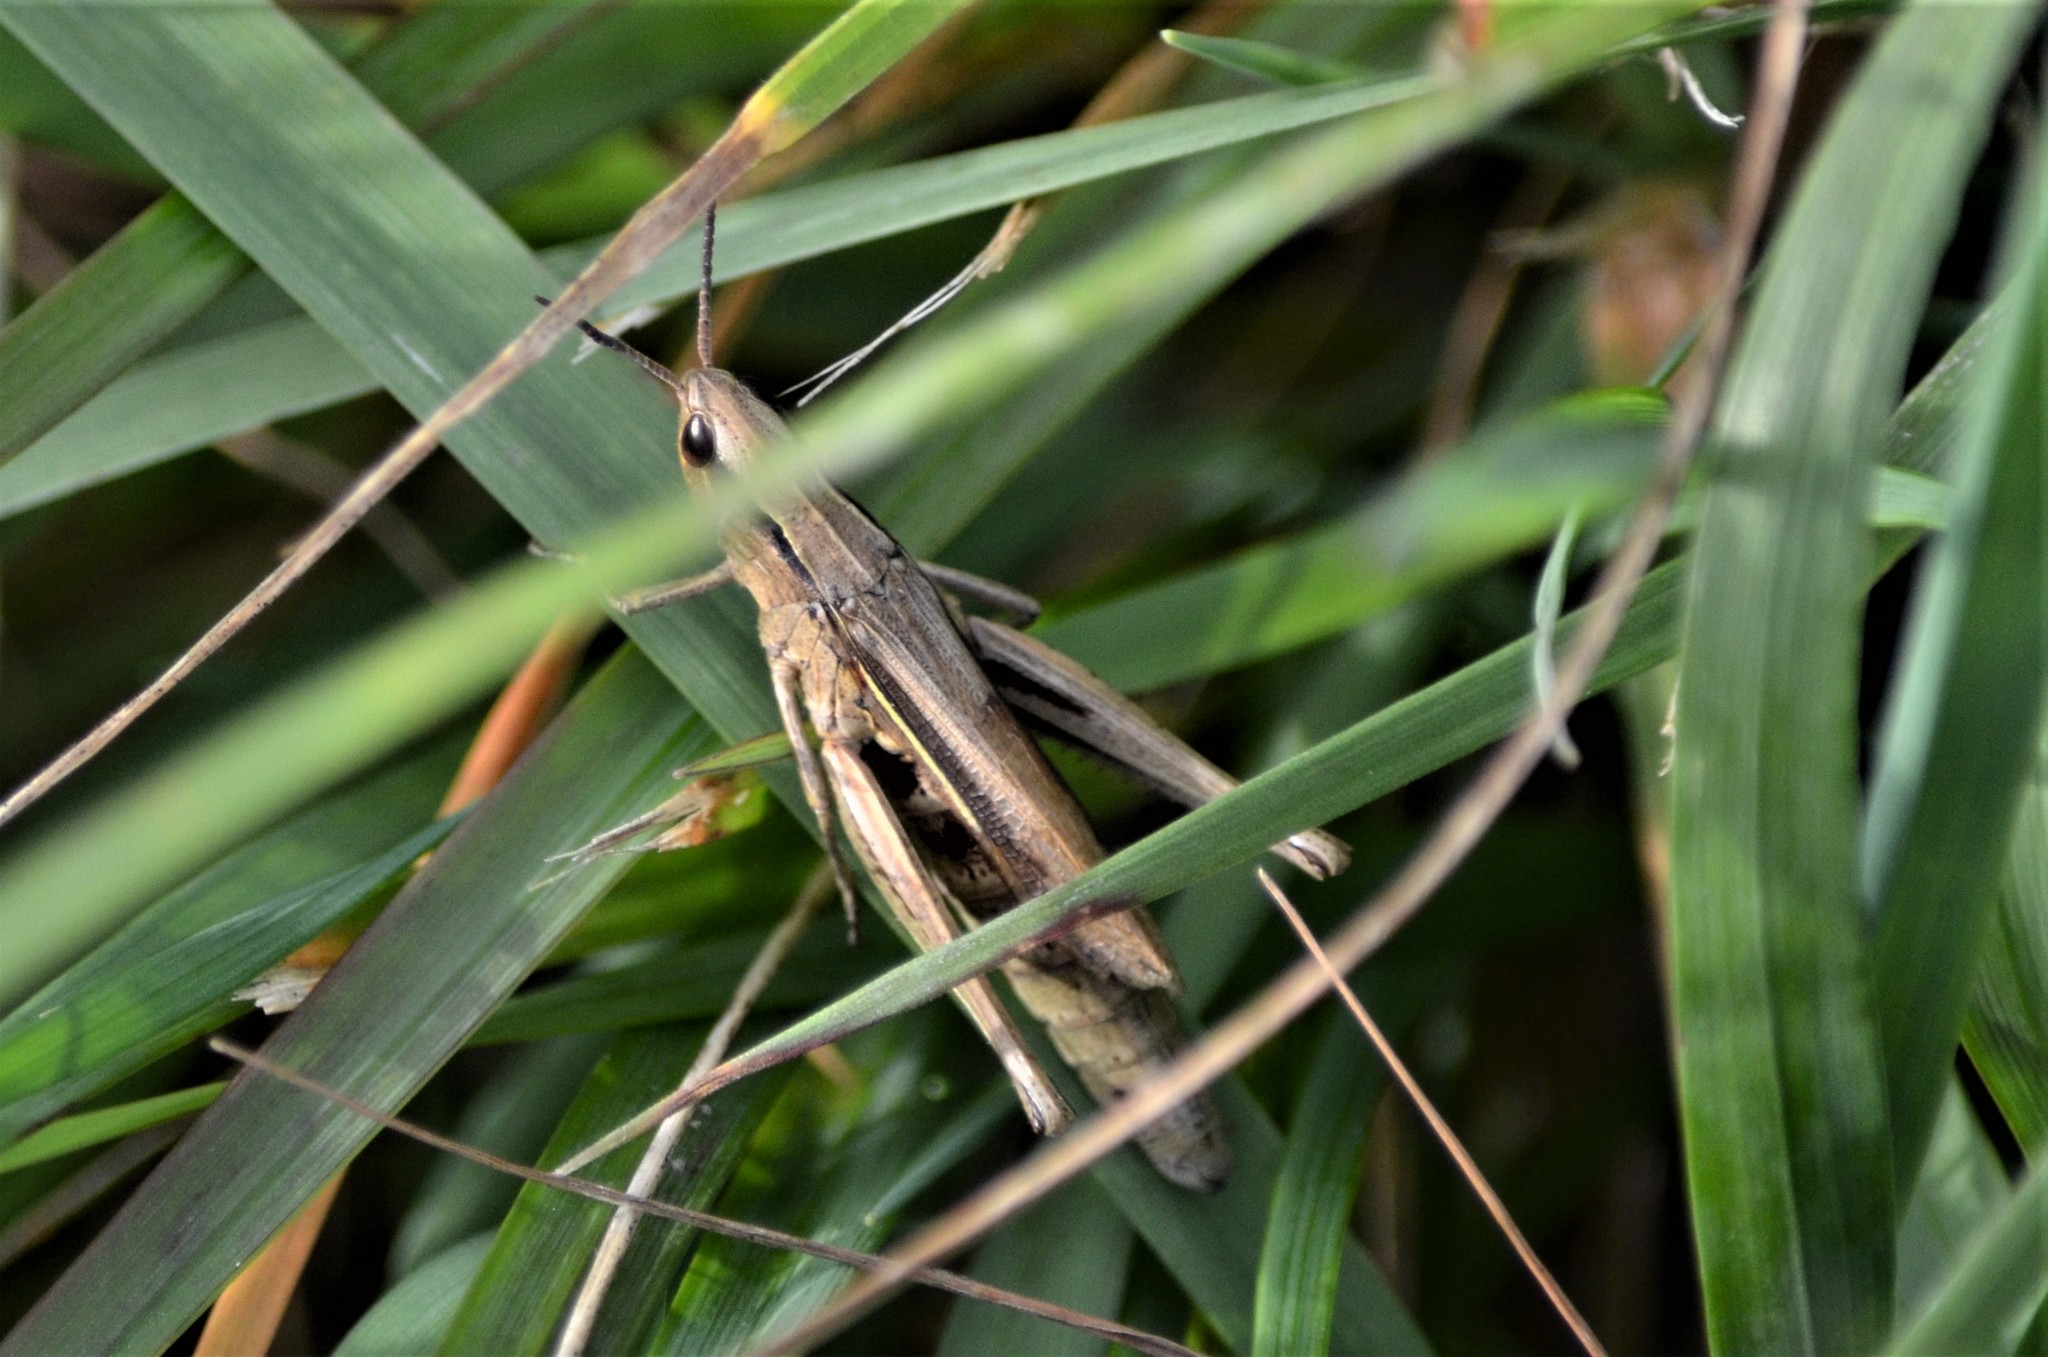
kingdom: Animalia
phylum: Arthropoda
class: Insecta
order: Orthoptera
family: Acrididae
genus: Chorthippus
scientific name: Chorthippus albomarginatus
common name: Lesser marsh grasshopper
